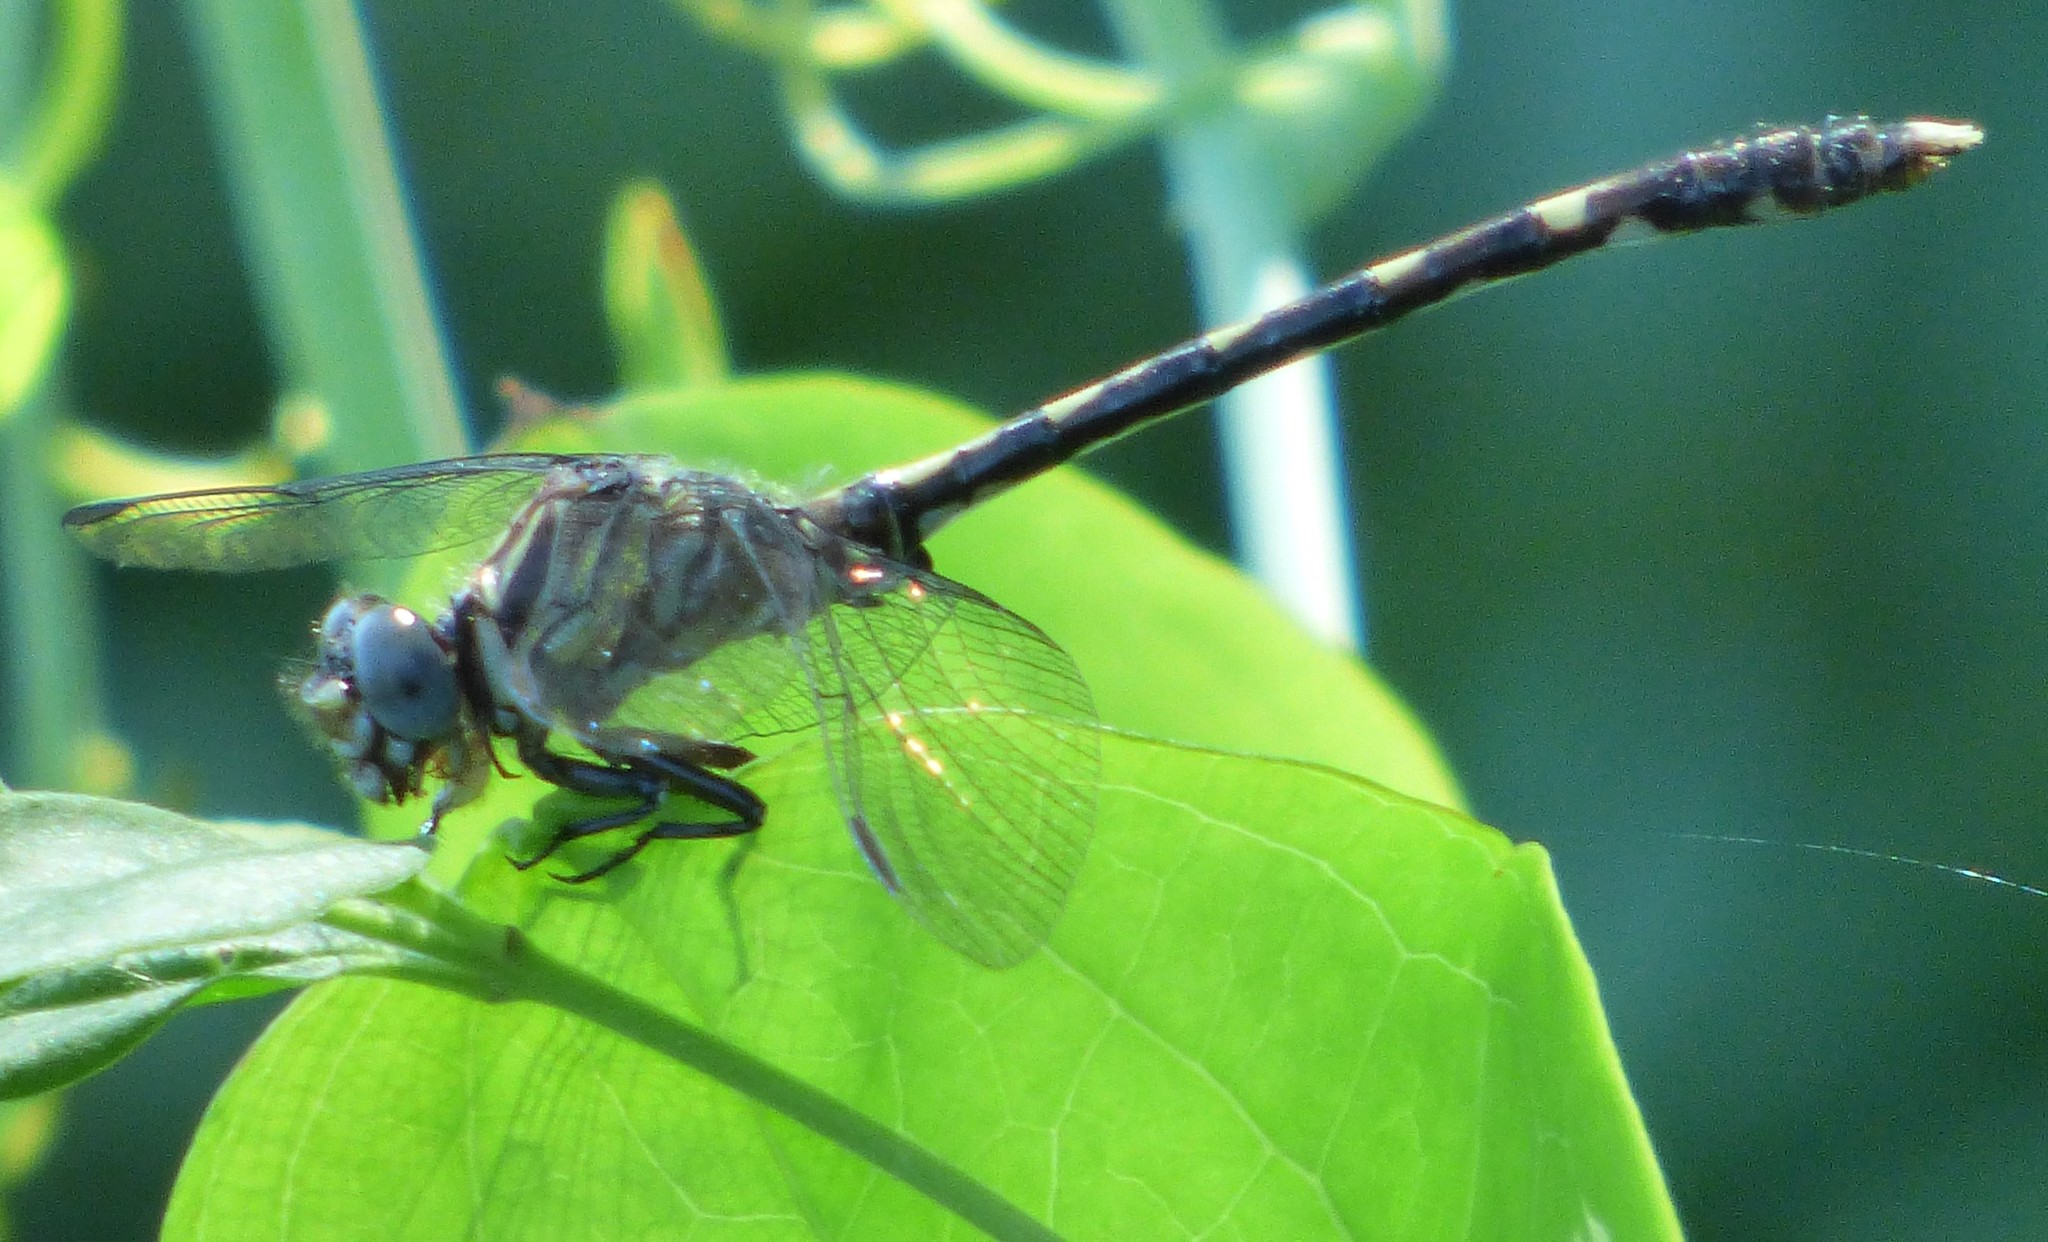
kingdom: Animalia
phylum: Arthropoda
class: Insecta
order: Odonata
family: Gomphidae
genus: Progomphus
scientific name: Progomphus obscurus
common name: Common sanddragon
